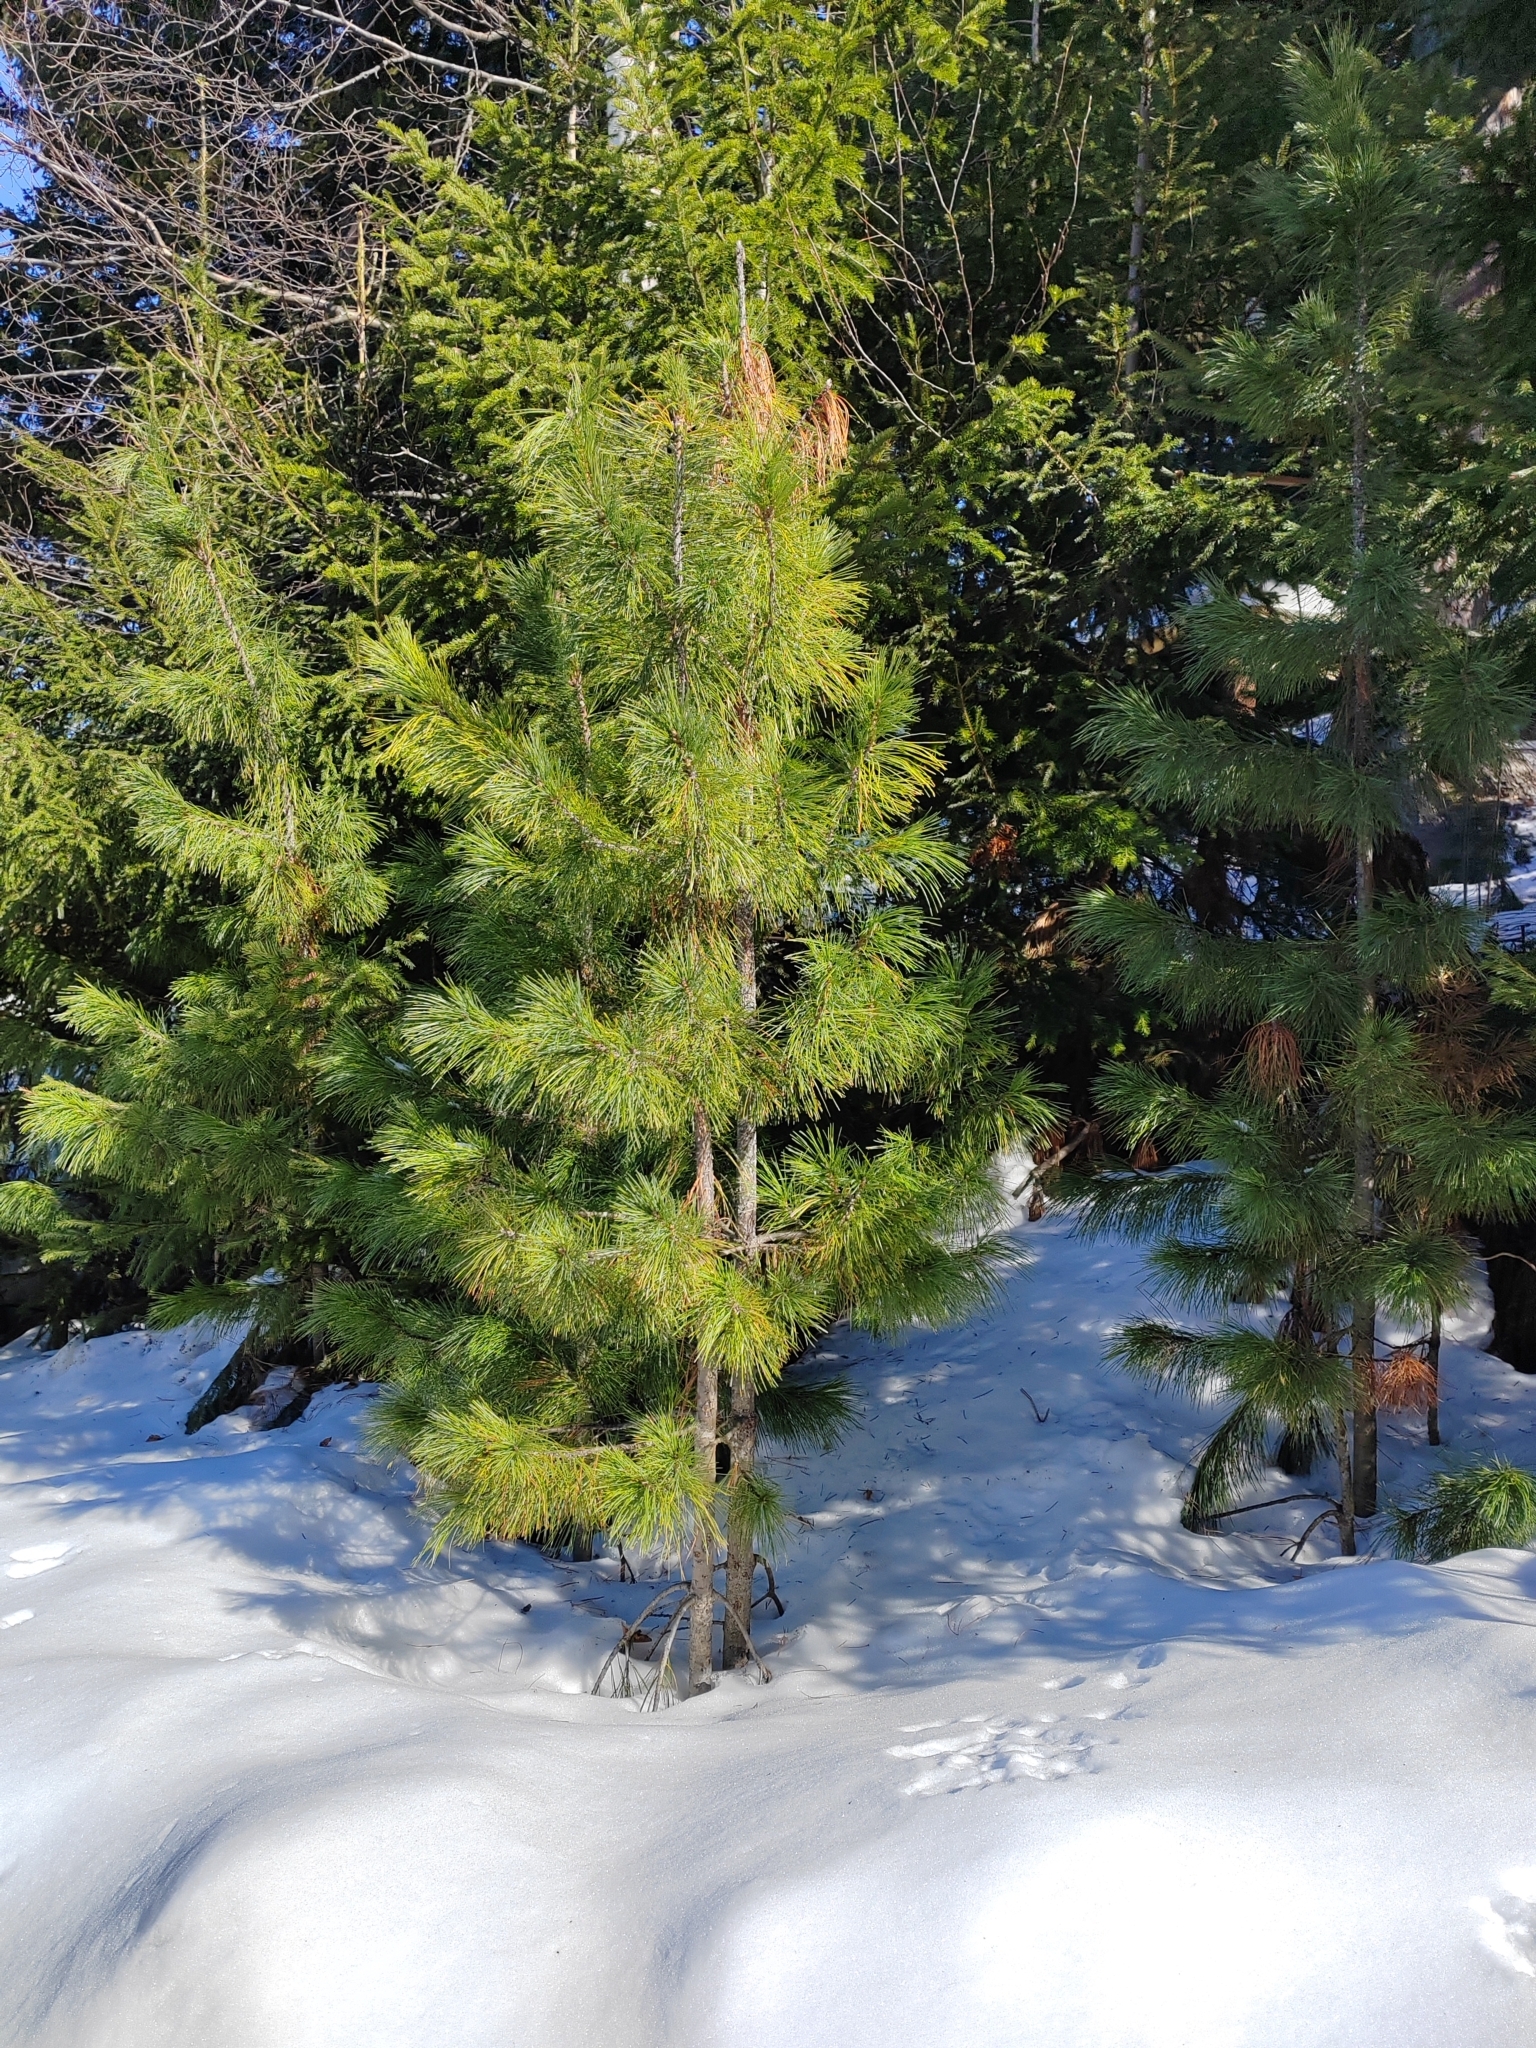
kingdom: Plantae
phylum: Tracheophyta
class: Pinopsida
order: Pinales
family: Pinaceae
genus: Pinus
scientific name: Pinus sibirica
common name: Siberian pine
